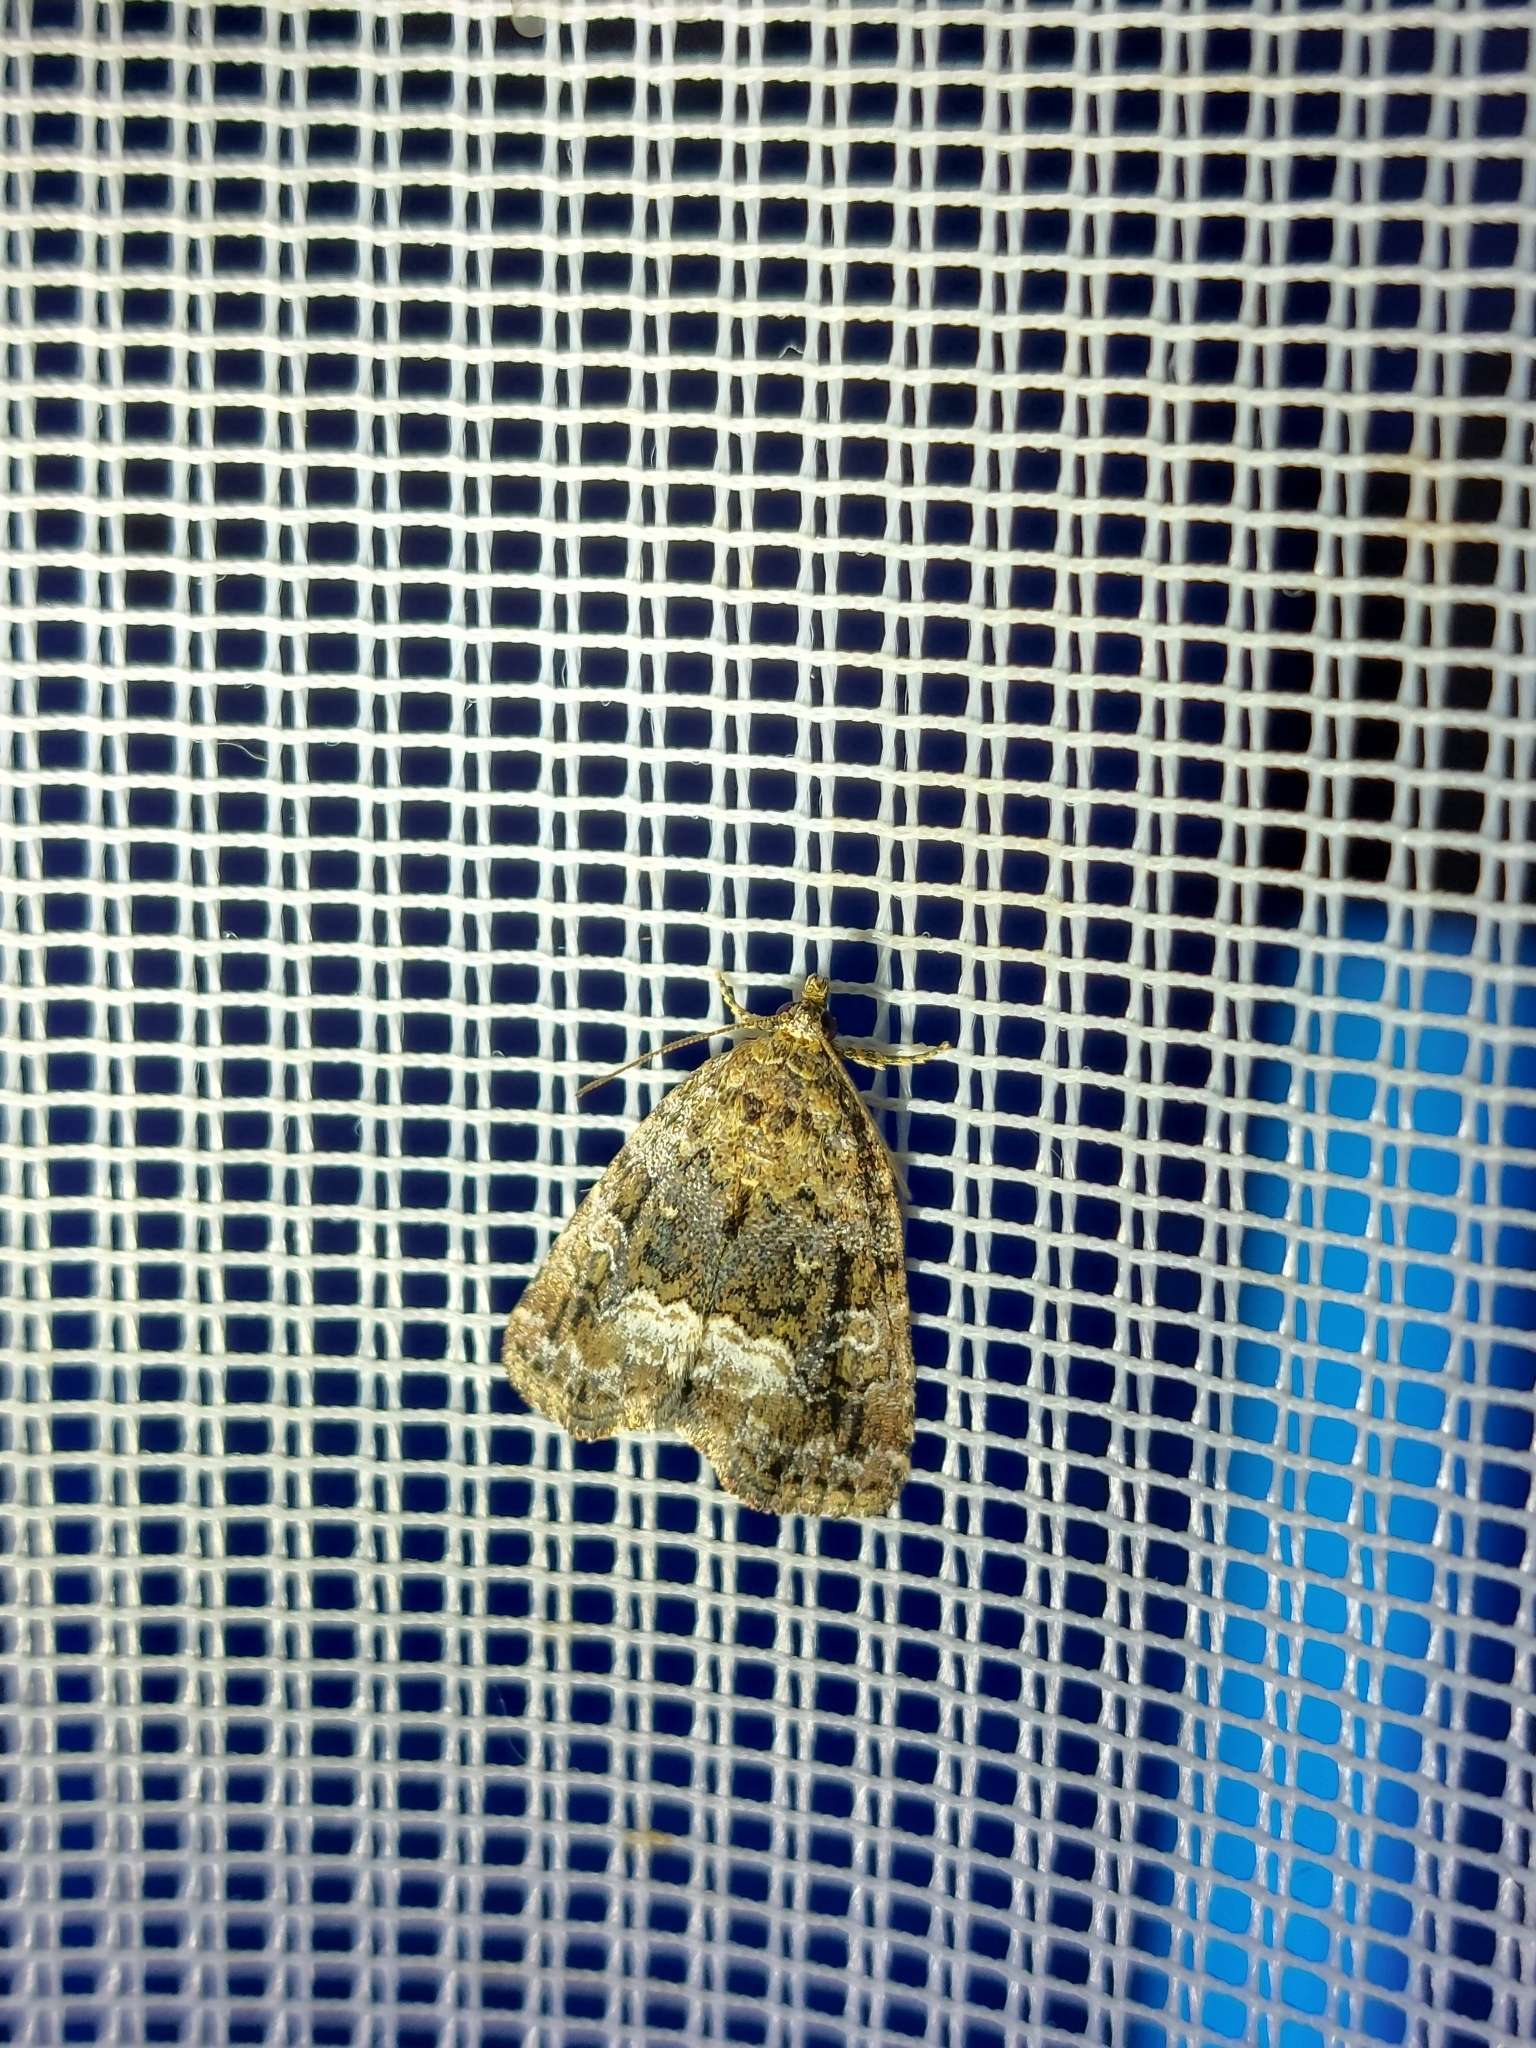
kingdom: Animalia
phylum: Arthropoda
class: Insecta
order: Lepidoptera
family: Noctuidae
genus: Deltote
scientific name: Deltote pygarga
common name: Marbled white spot
